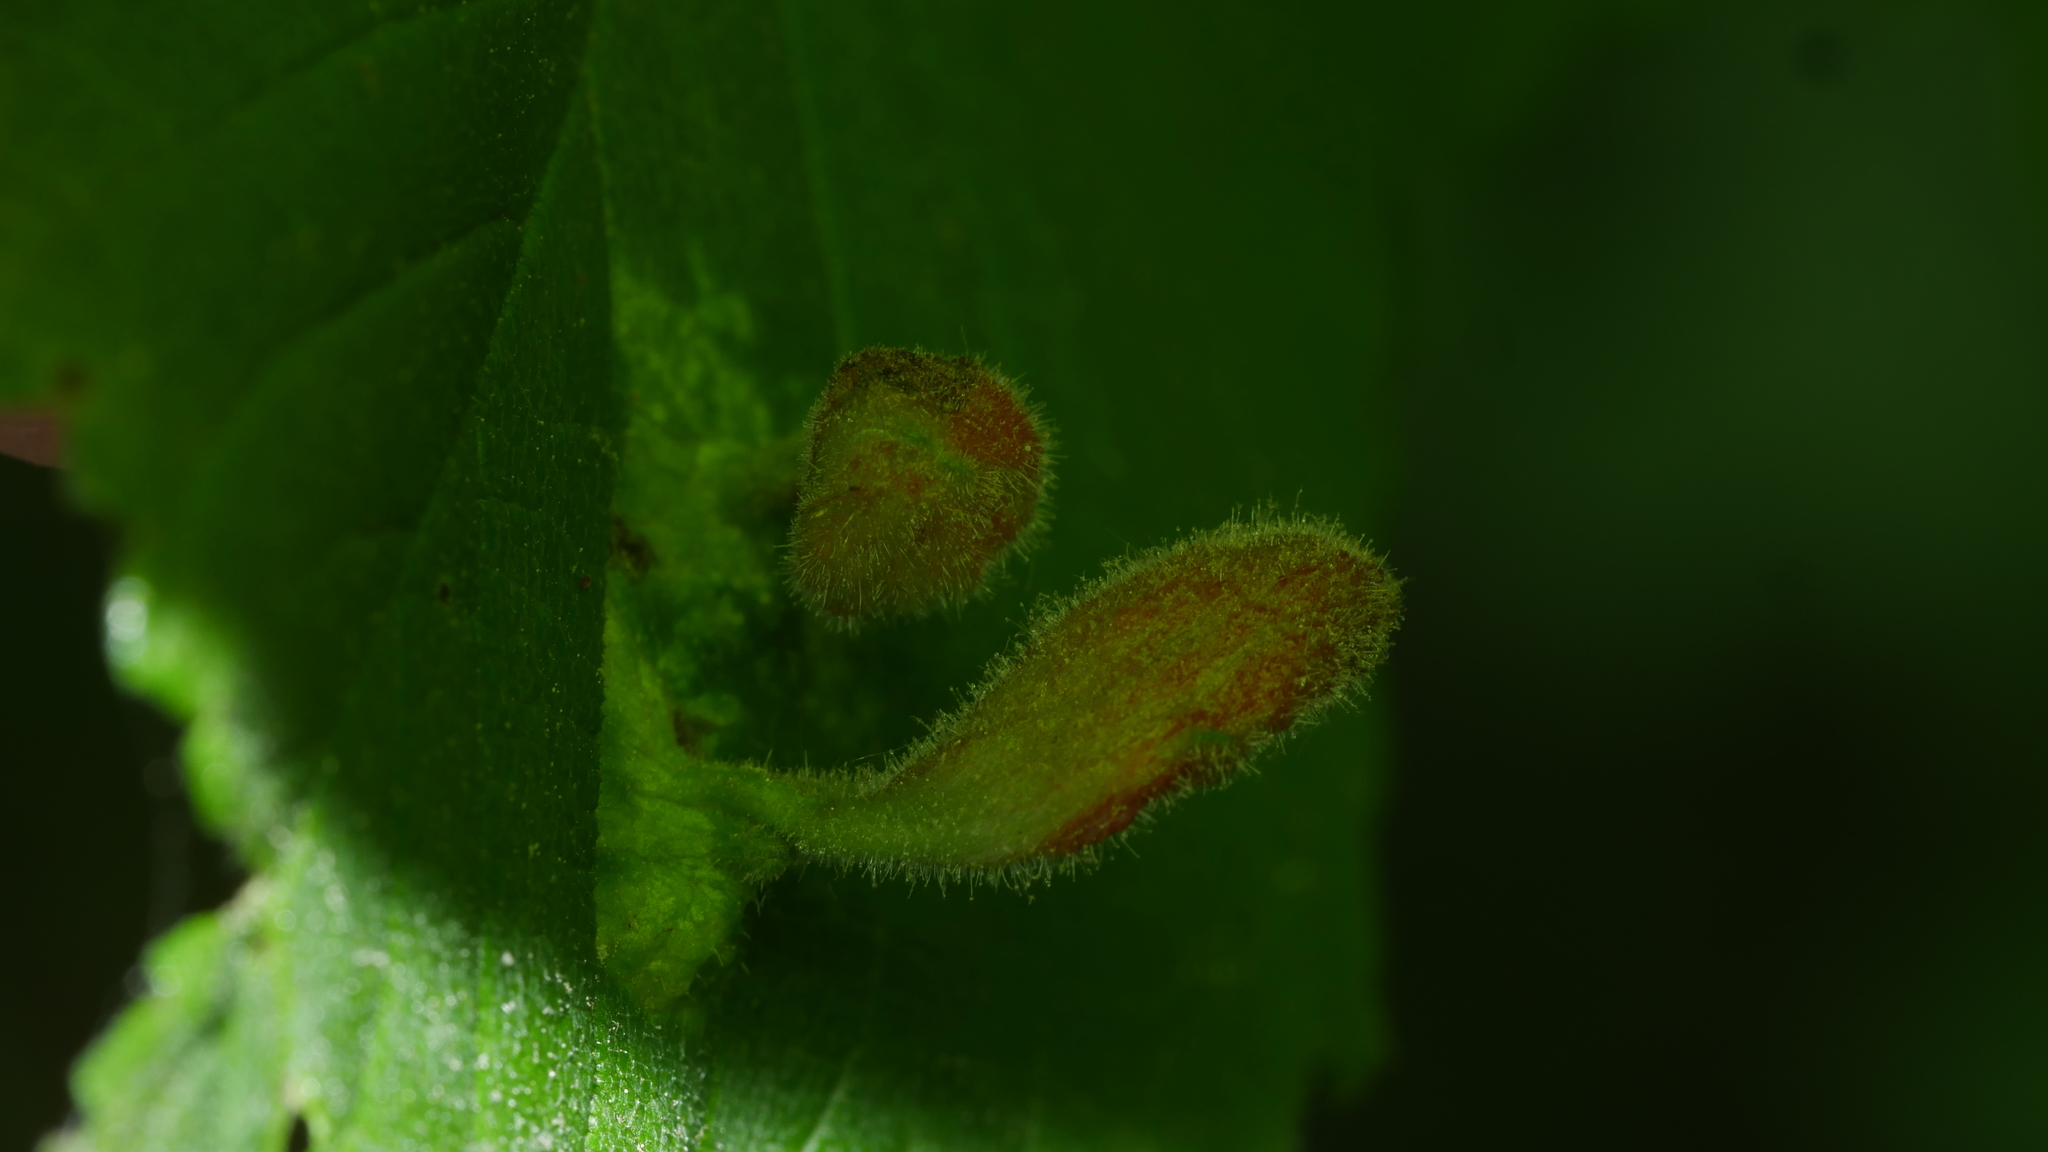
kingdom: Animalia
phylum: Arthropoda
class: Insecta
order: Hemiptera
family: Aphididae
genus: Tetraneura
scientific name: Tetraneura nigriabdominalis
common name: Aphid
